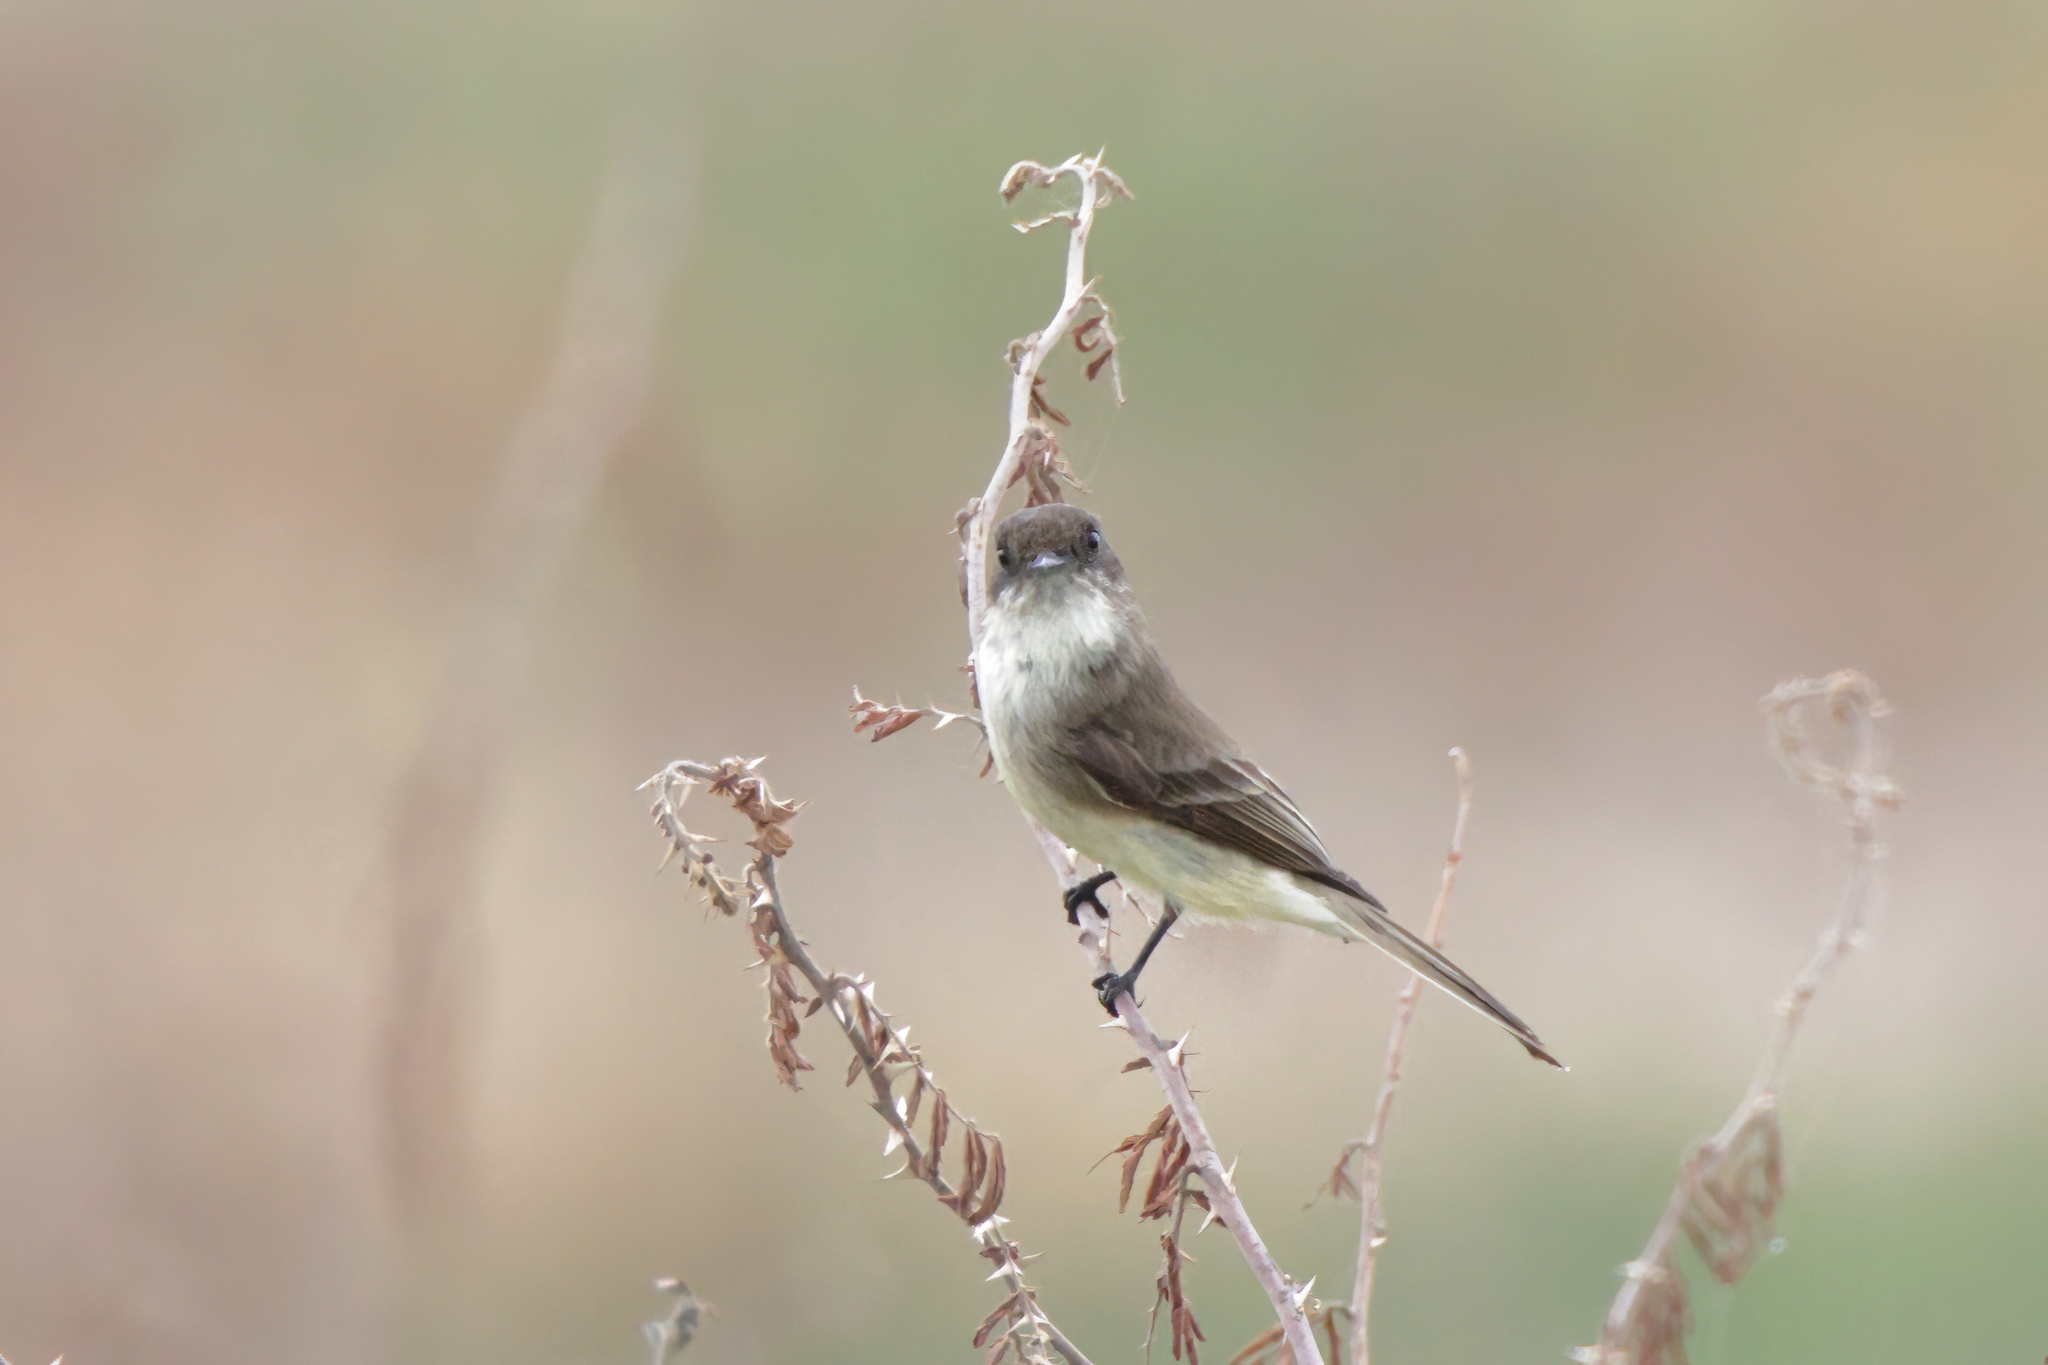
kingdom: Animalia
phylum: Chordata
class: Aves
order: Passeriformes
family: Tyrannidae
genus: Sayornis
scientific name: Sayornis phoebe
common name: Eastern phoebe
